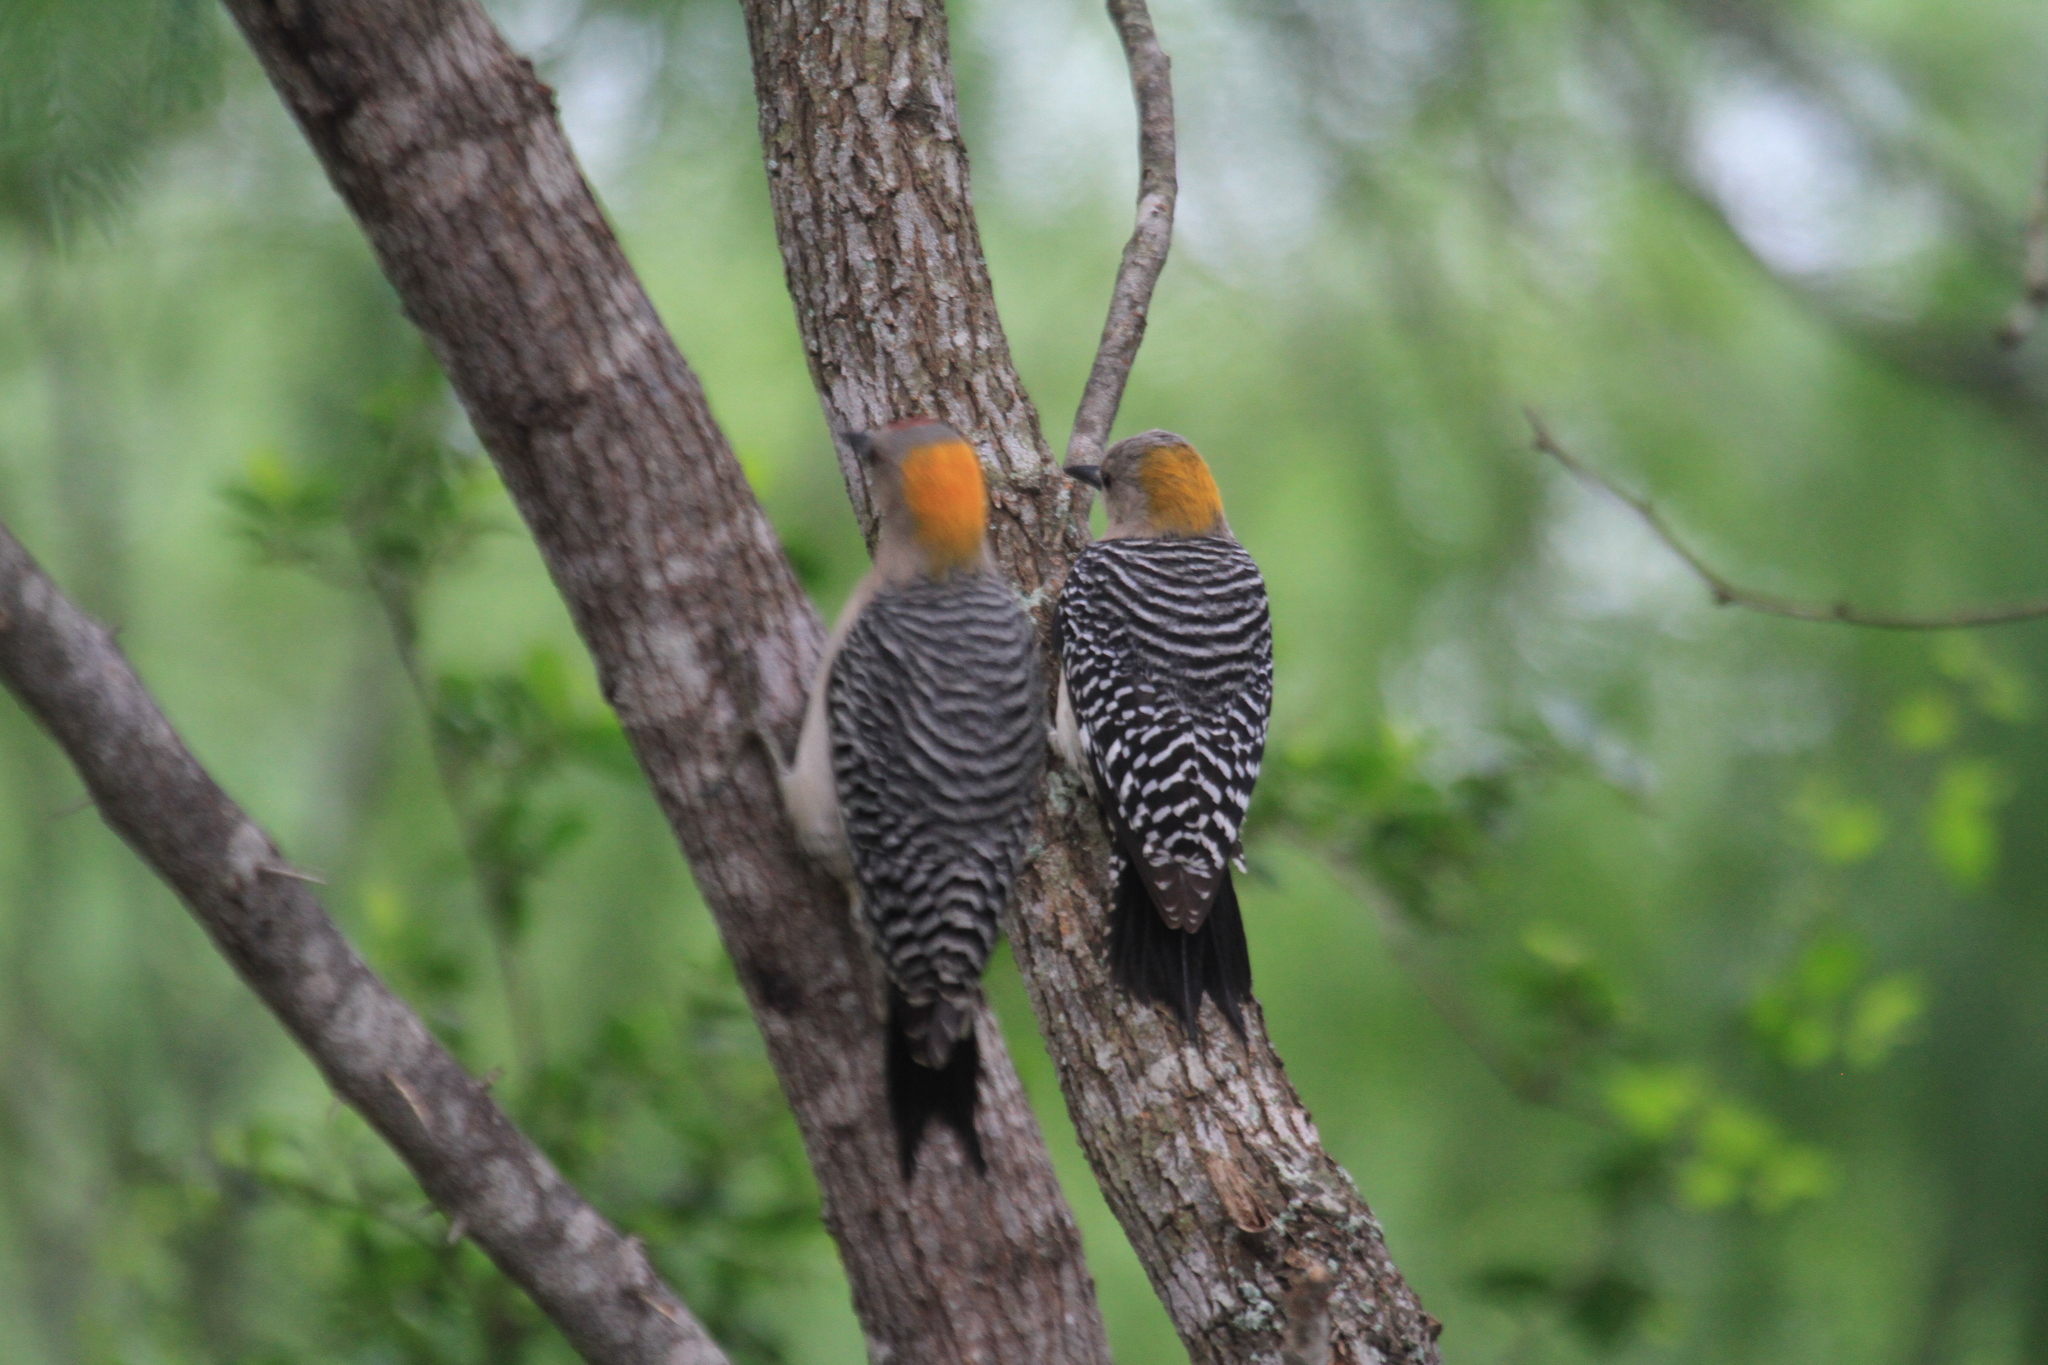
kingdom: Animalia
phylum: Chordata
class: Aves
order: Piciformes
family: Picidae
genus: Melanerpes
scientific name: Melanerpes aurifrons
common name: Golden-fronted woodpecker
